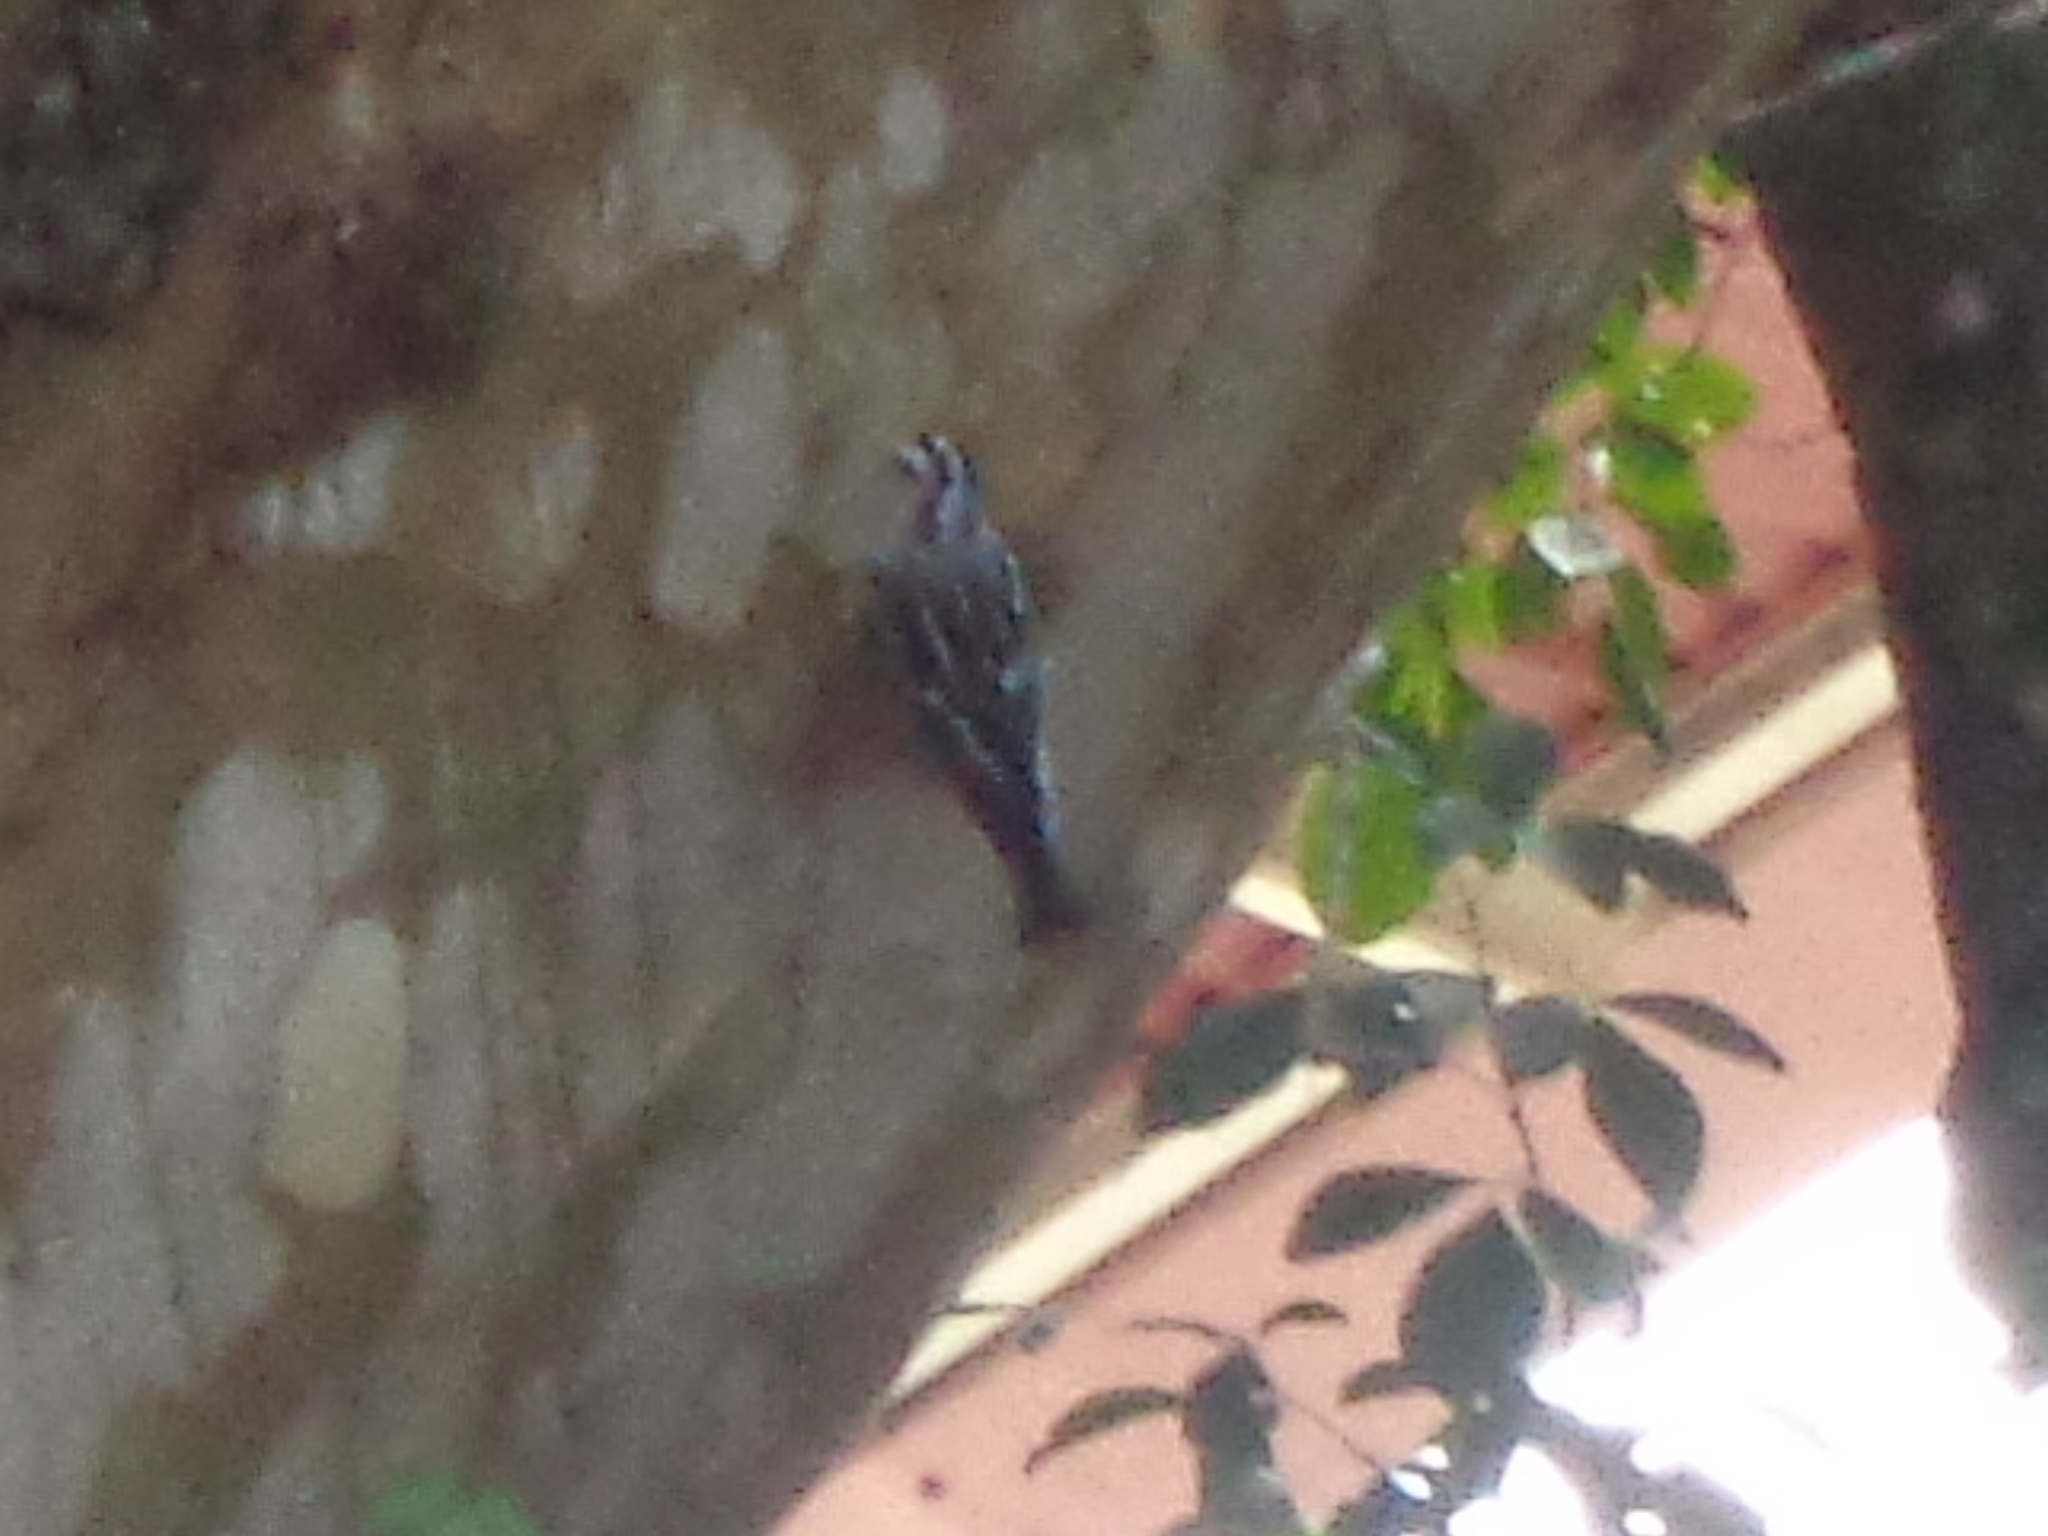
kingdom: Animalia
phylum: Chordata
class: Aves
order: Passeriformes
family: Parulidae
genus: Mniotilta
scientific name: Mniotilta varia
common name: Black-and-white warbler
